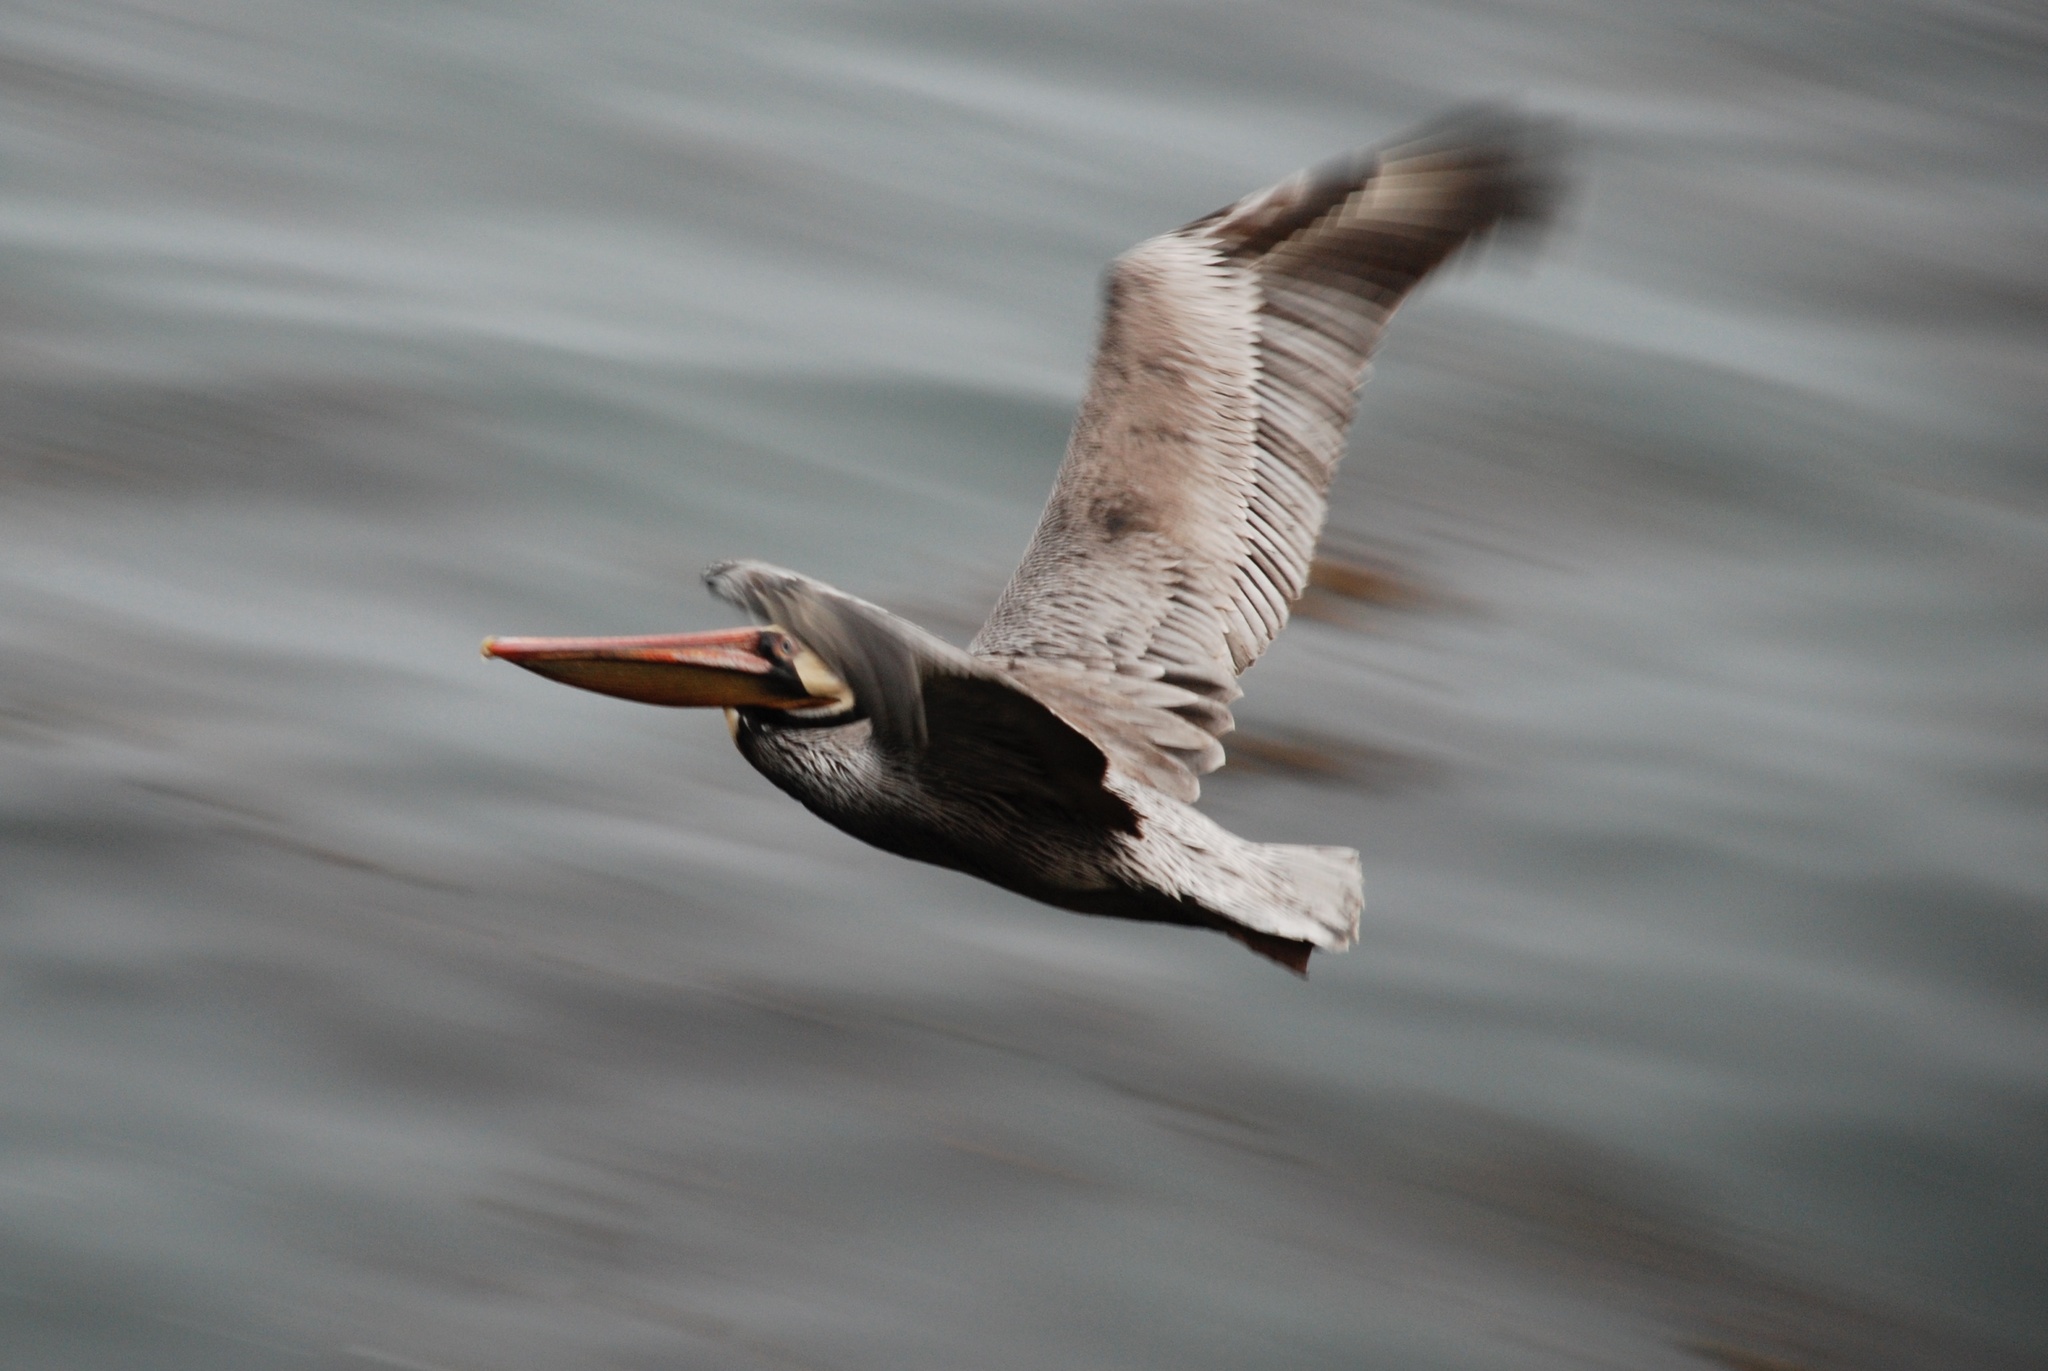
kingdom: Animalia
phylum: Chordata
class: Aves
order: Pelecaniformes
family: Pelecanidae
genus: Pelecanus
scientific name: Pelecanus occidentalis
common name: Brown pelican
